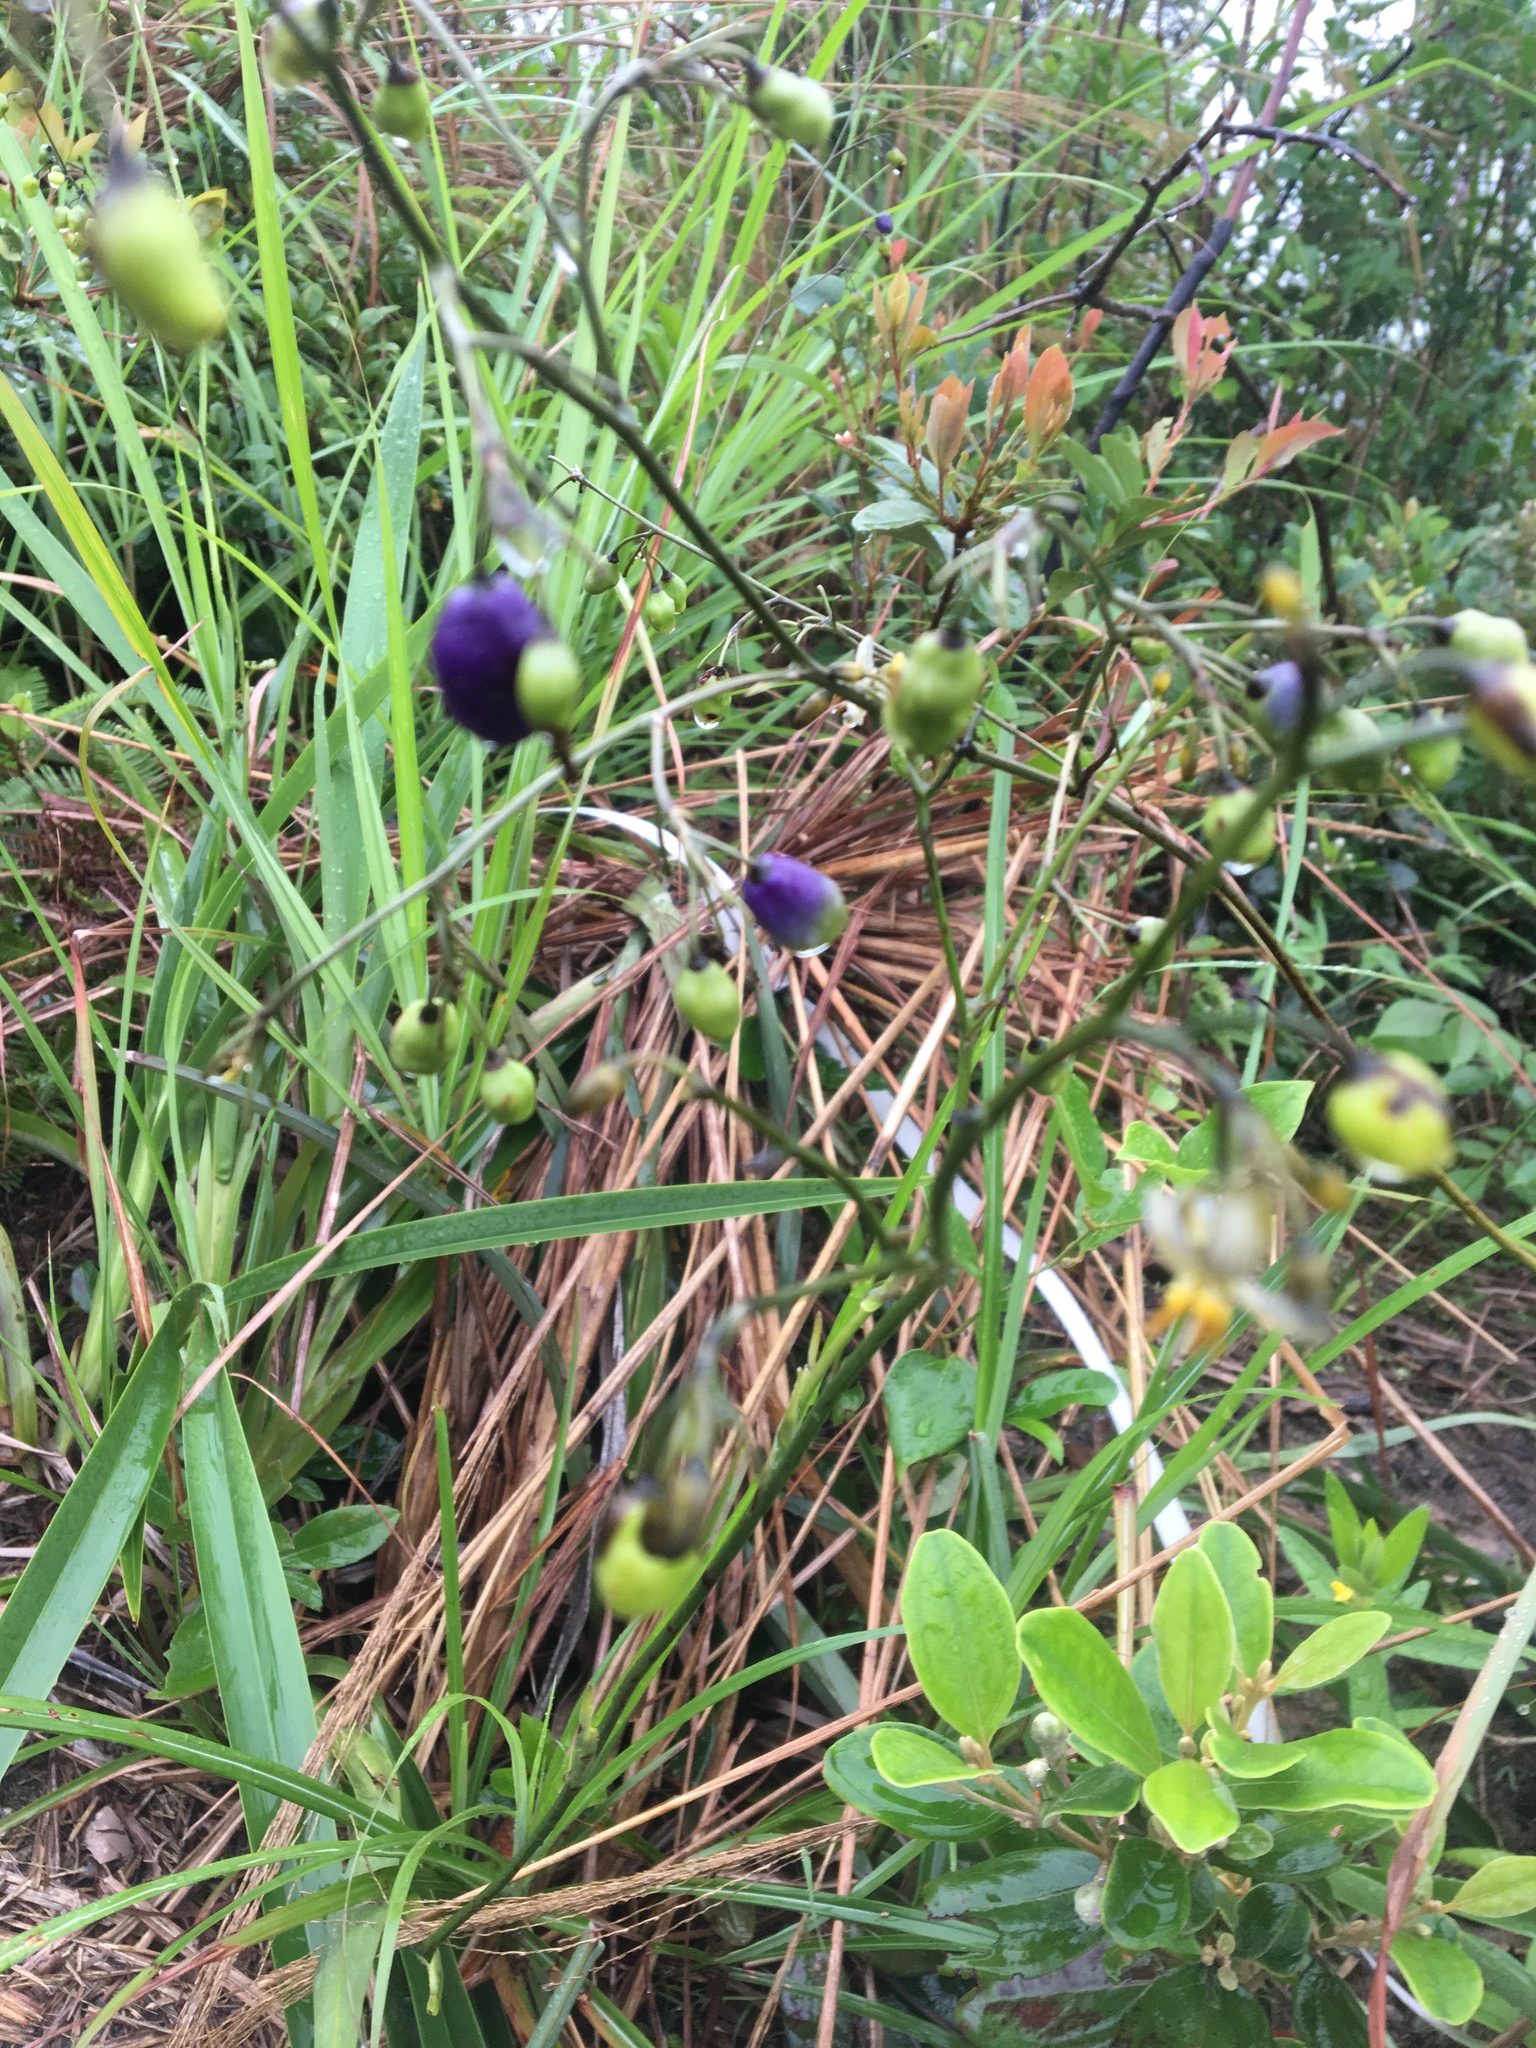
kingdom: Plantae
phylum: Tracheophyta
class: Liliopsida
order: Asparagales
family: Asphodelaceae
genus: Dianella
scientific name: Dianella ensifolia
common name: New zealand lilyplant
